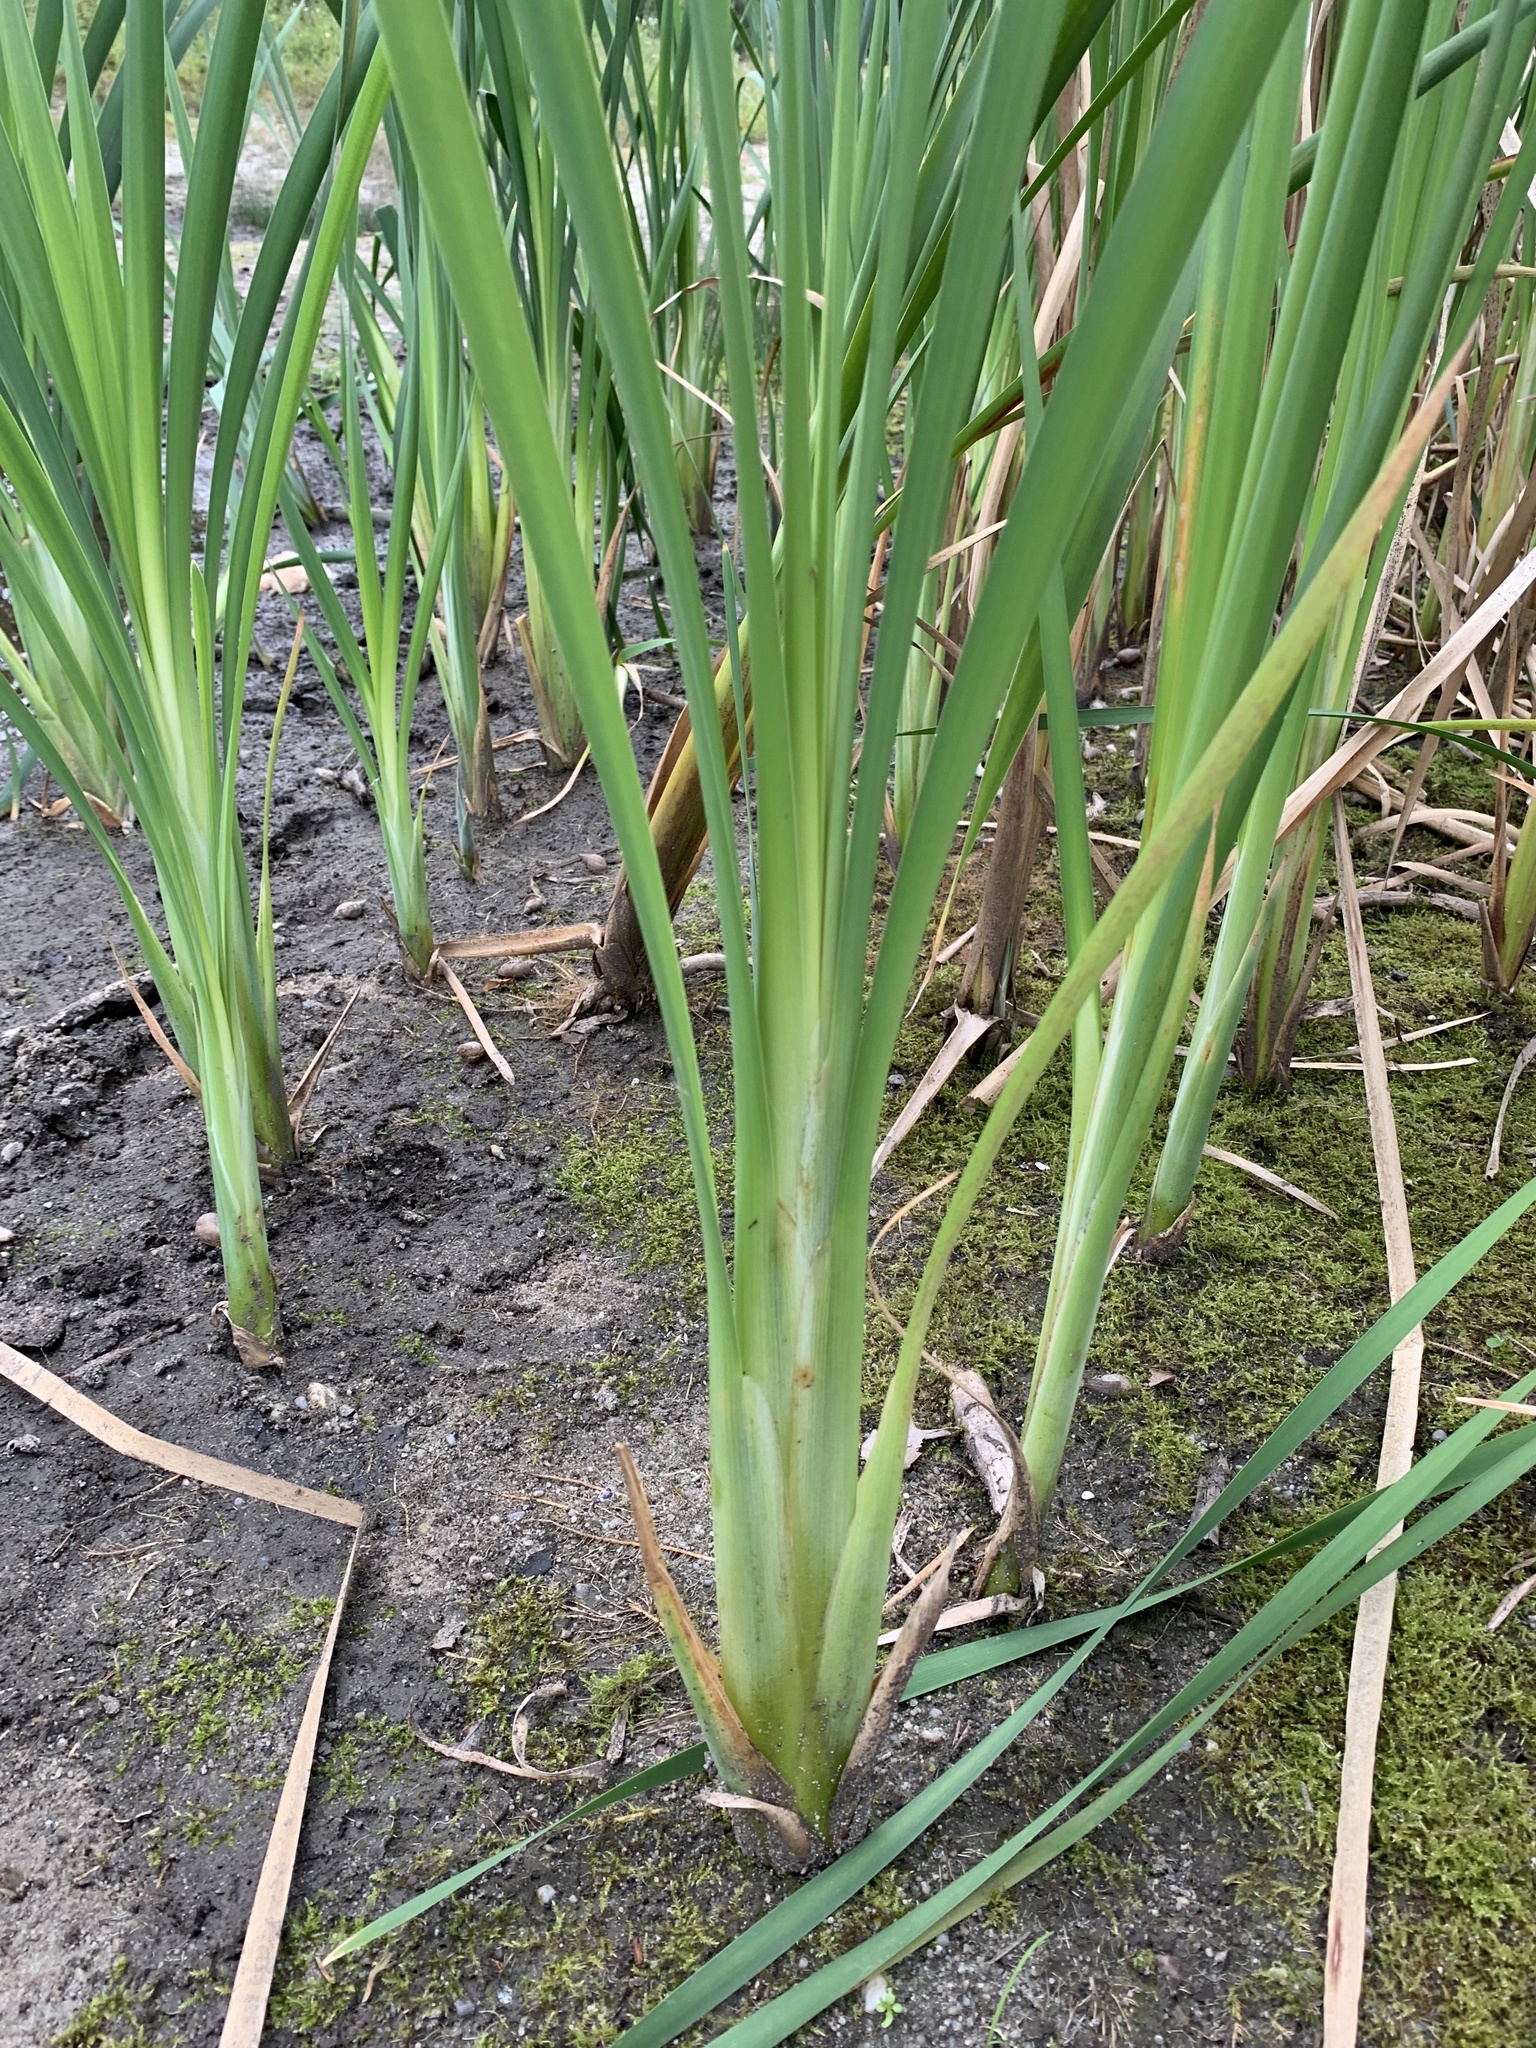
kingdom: Plantae
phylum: Tracheophyta
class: Liliopsida
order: Poales
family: Typhaceae
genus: Typha
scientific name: Typha latifolia
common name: Broadleaf cattail
